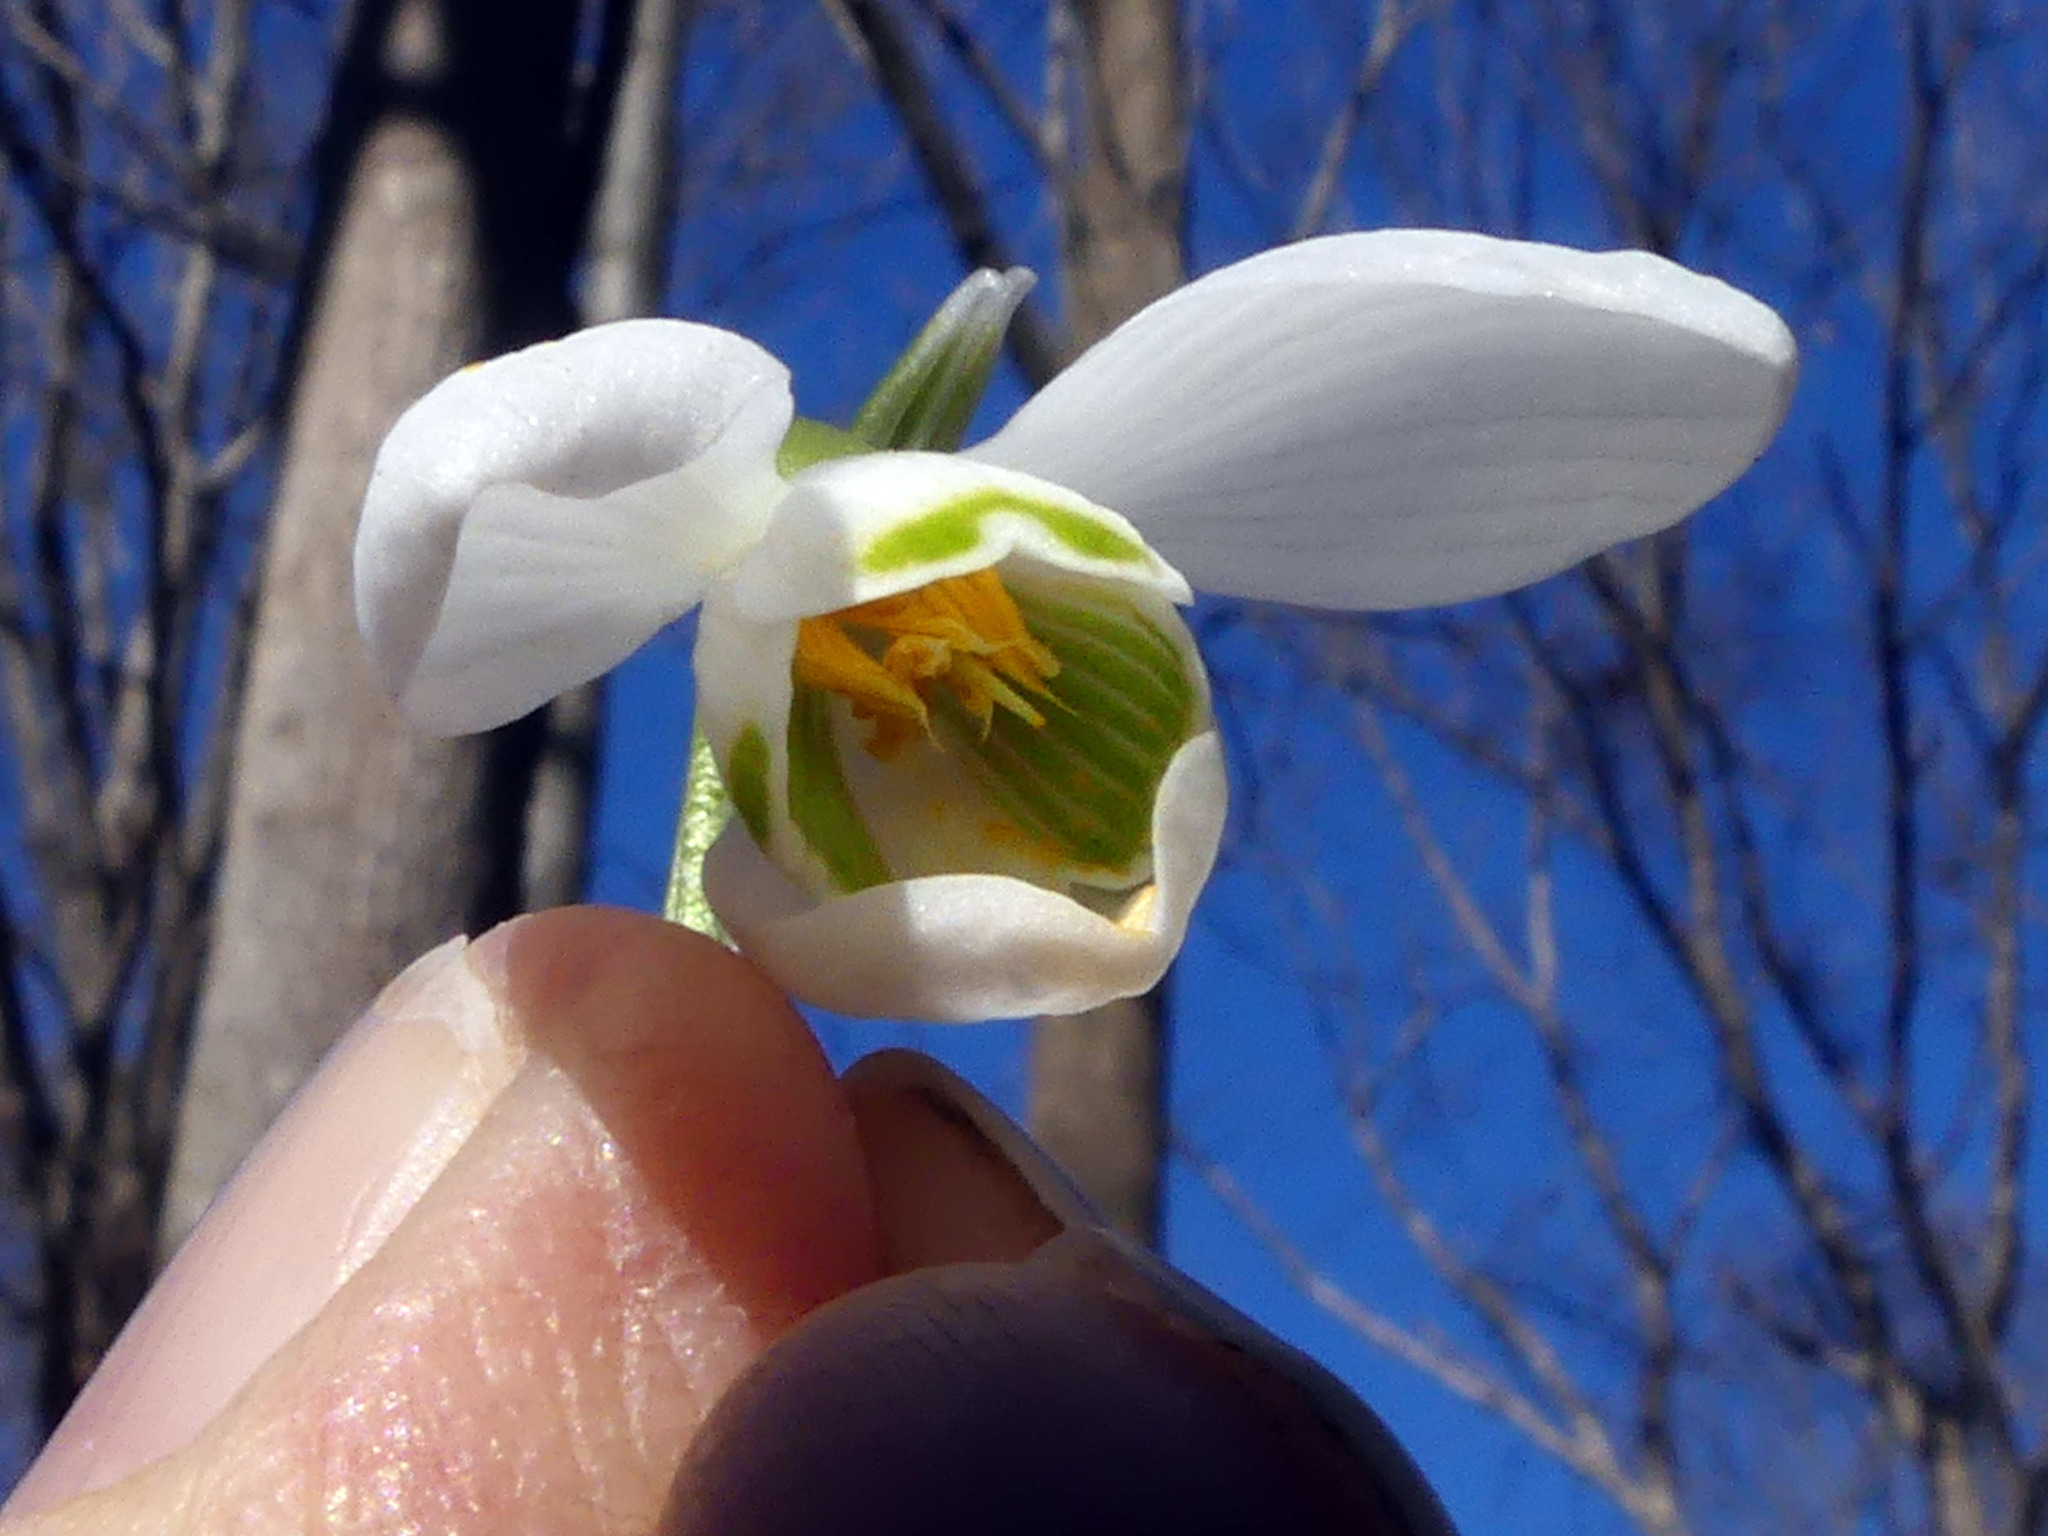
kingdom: Plantae
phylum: Tracheophyta
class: Liliopsida
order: Asparagales
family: Amaryllidaceae
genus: Galanthus
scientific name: Galanthus nivalis
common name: Snowdrop
